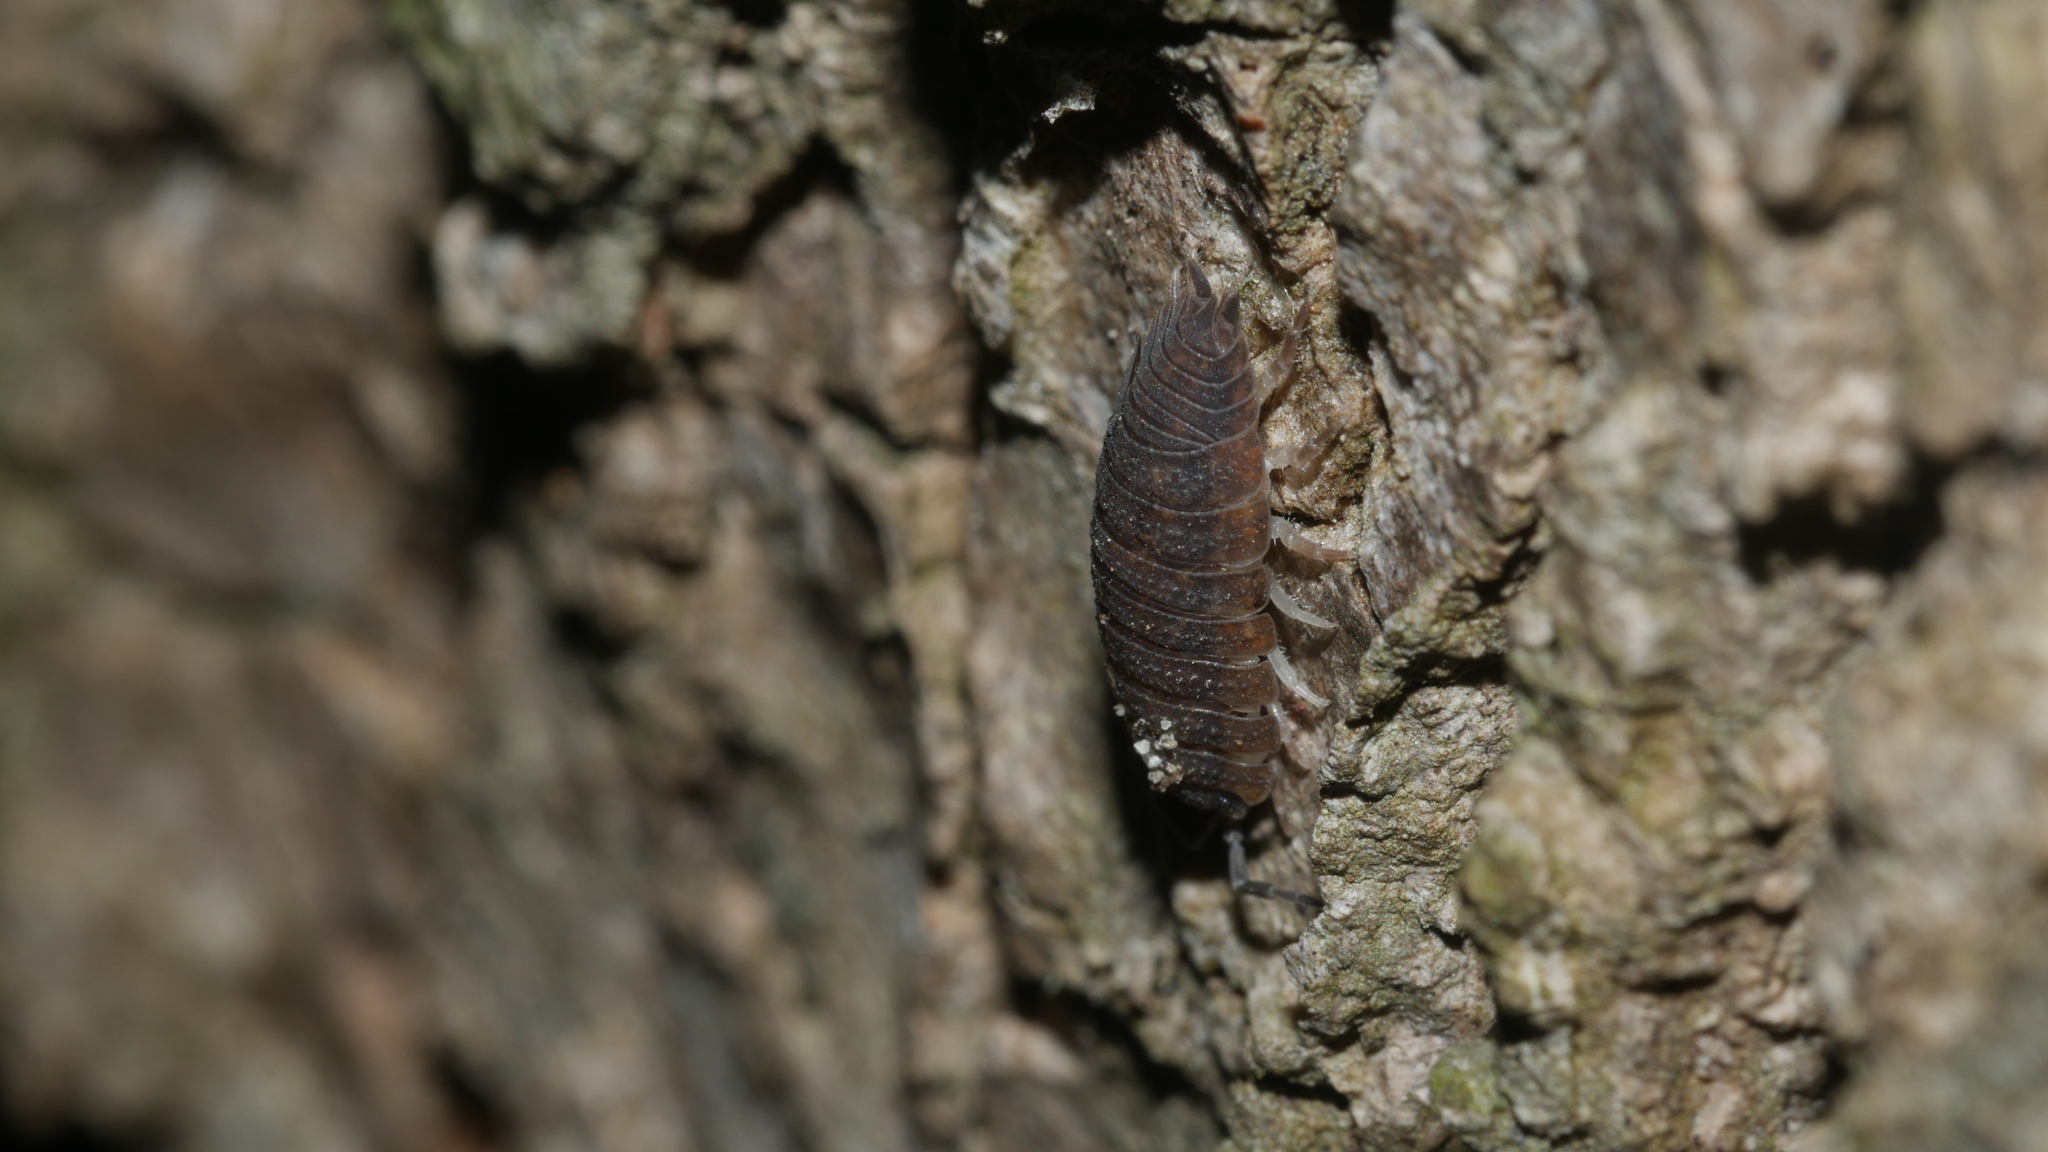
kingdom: Animalia
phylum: Arthropoda
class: Malacostraca
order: Isopoda
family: Porcellionidae
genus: Porcellio
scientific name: Porcellio scaber
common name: Common rough woodlouse
